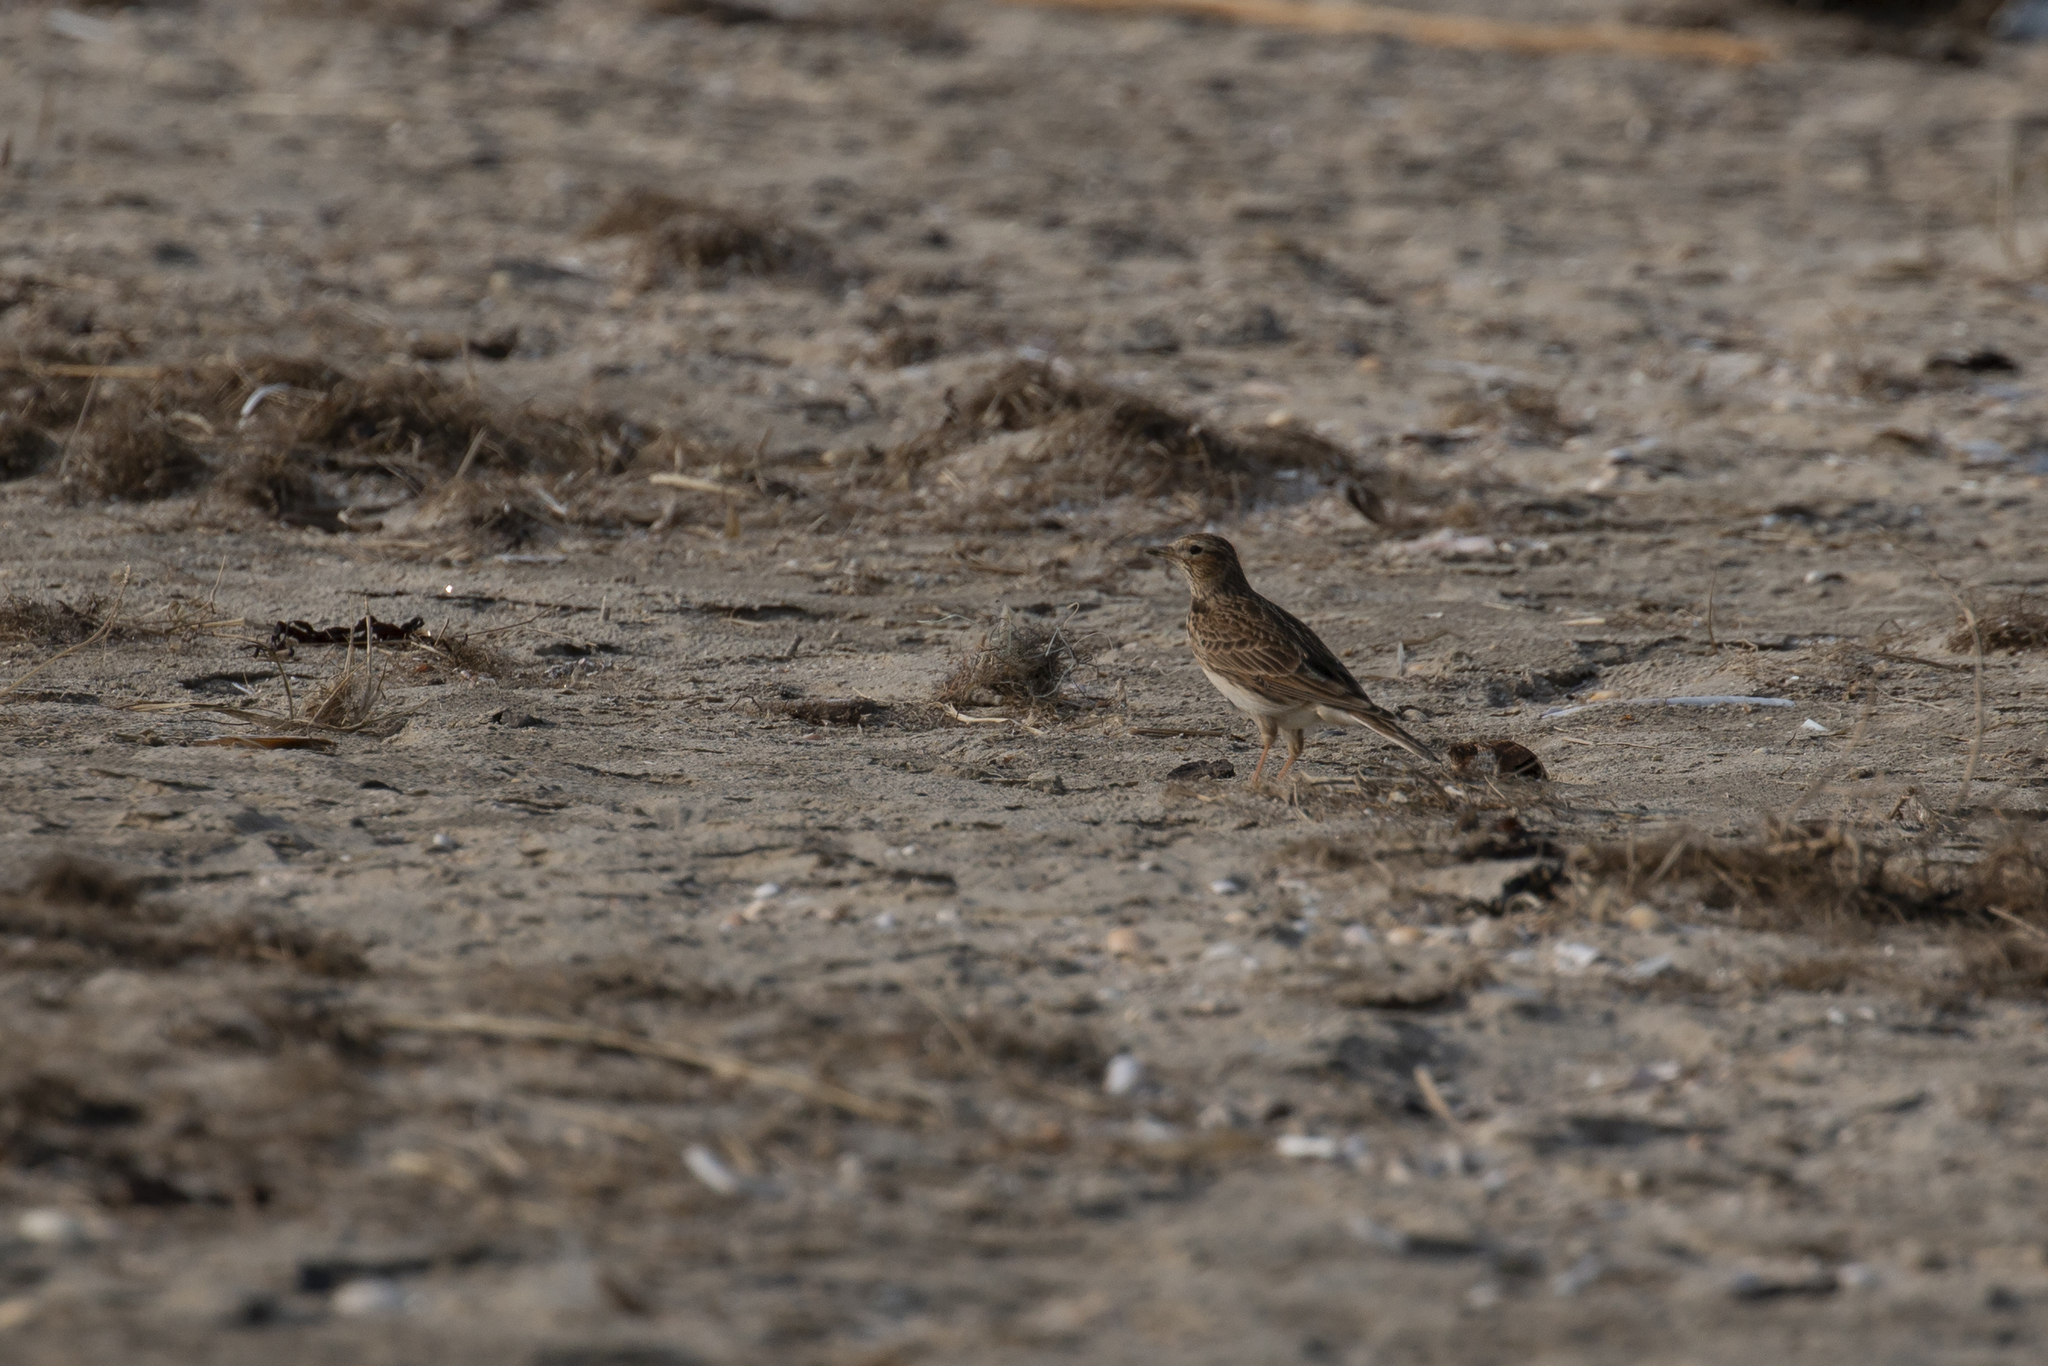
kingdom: Animalia
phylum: Chordata
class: Aves
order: Passeriformes
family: Alaudidae
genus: Alauda
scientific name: Alauda arvensis
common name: Eurasian skylark
